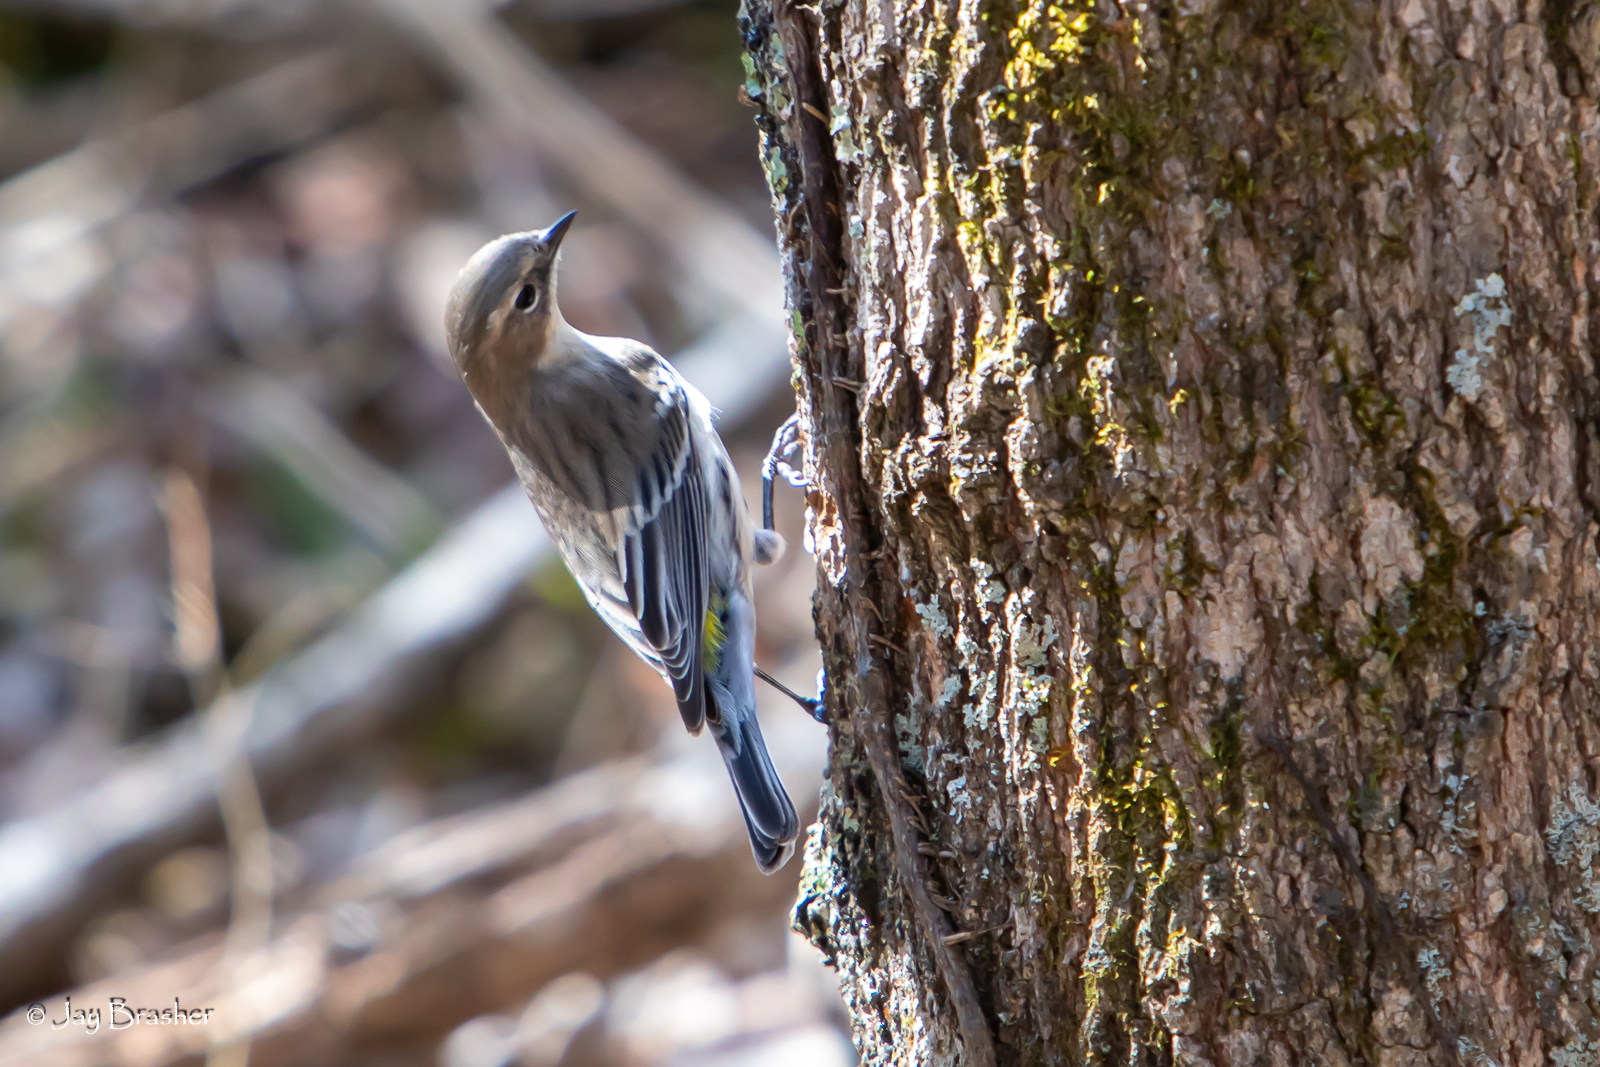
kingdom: Animalia
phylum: Chordata
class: Aves
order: Passeriformes
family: Parulidae
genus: Setophaga
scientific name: Setophaga coronata
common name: Myrtle warbler
